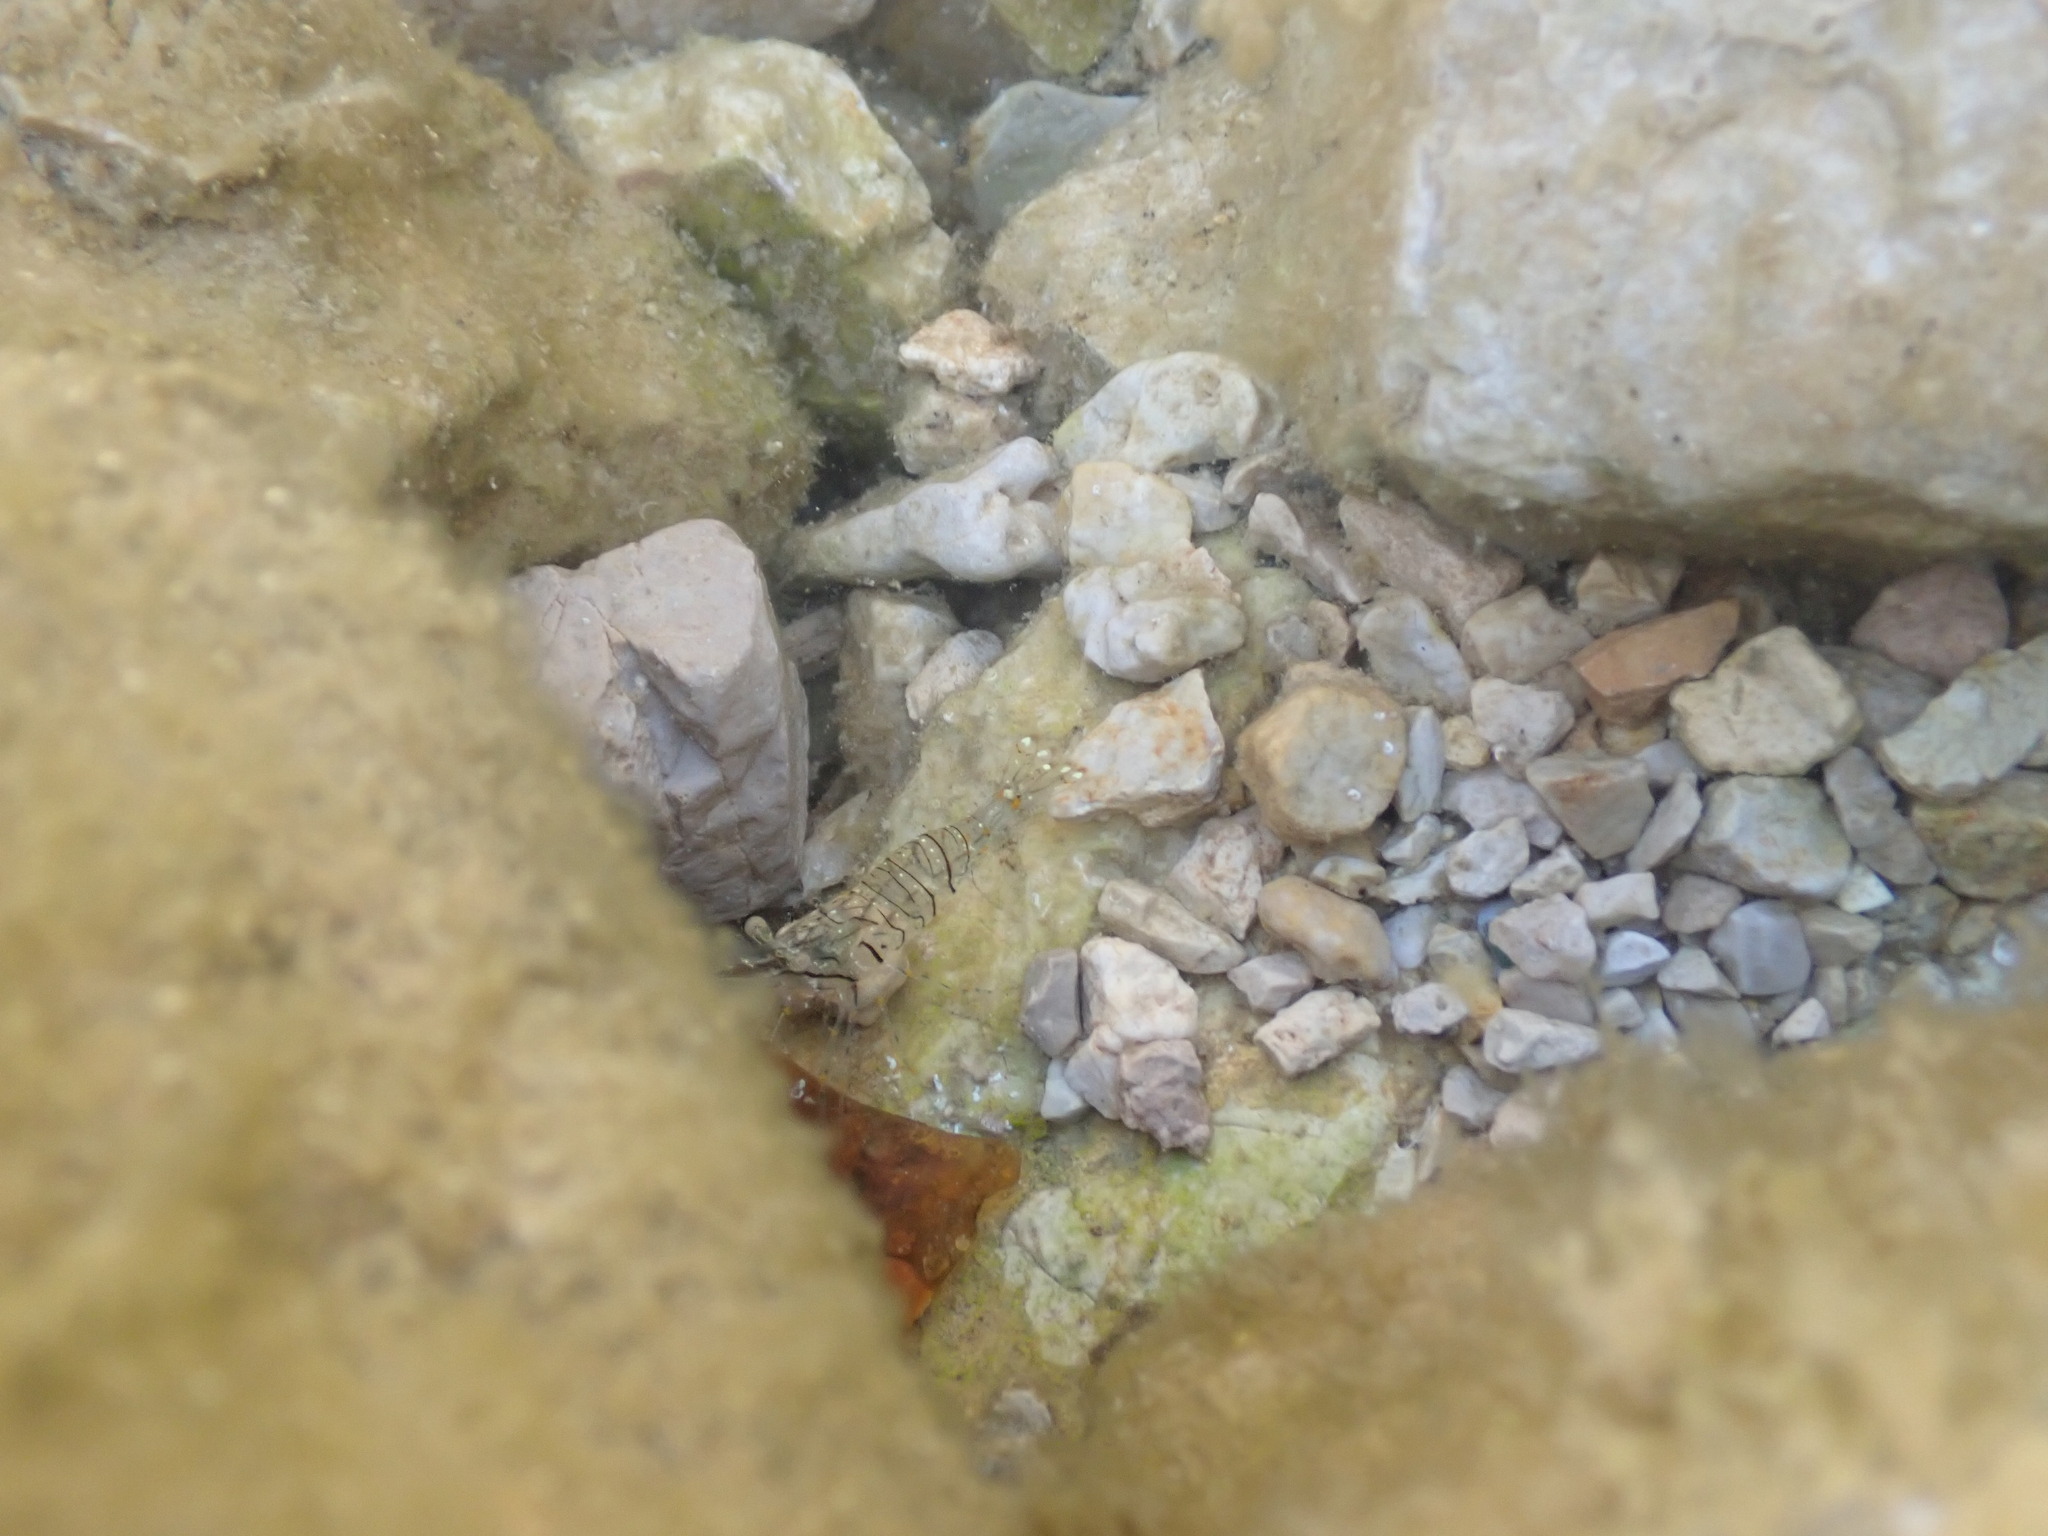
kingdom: Animalia
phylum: Arthropoda
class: Malacostraca
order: Decapoda
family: Palaemonidae
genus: Palaemon
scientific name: Palaemon elegans
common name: Grass prawm
